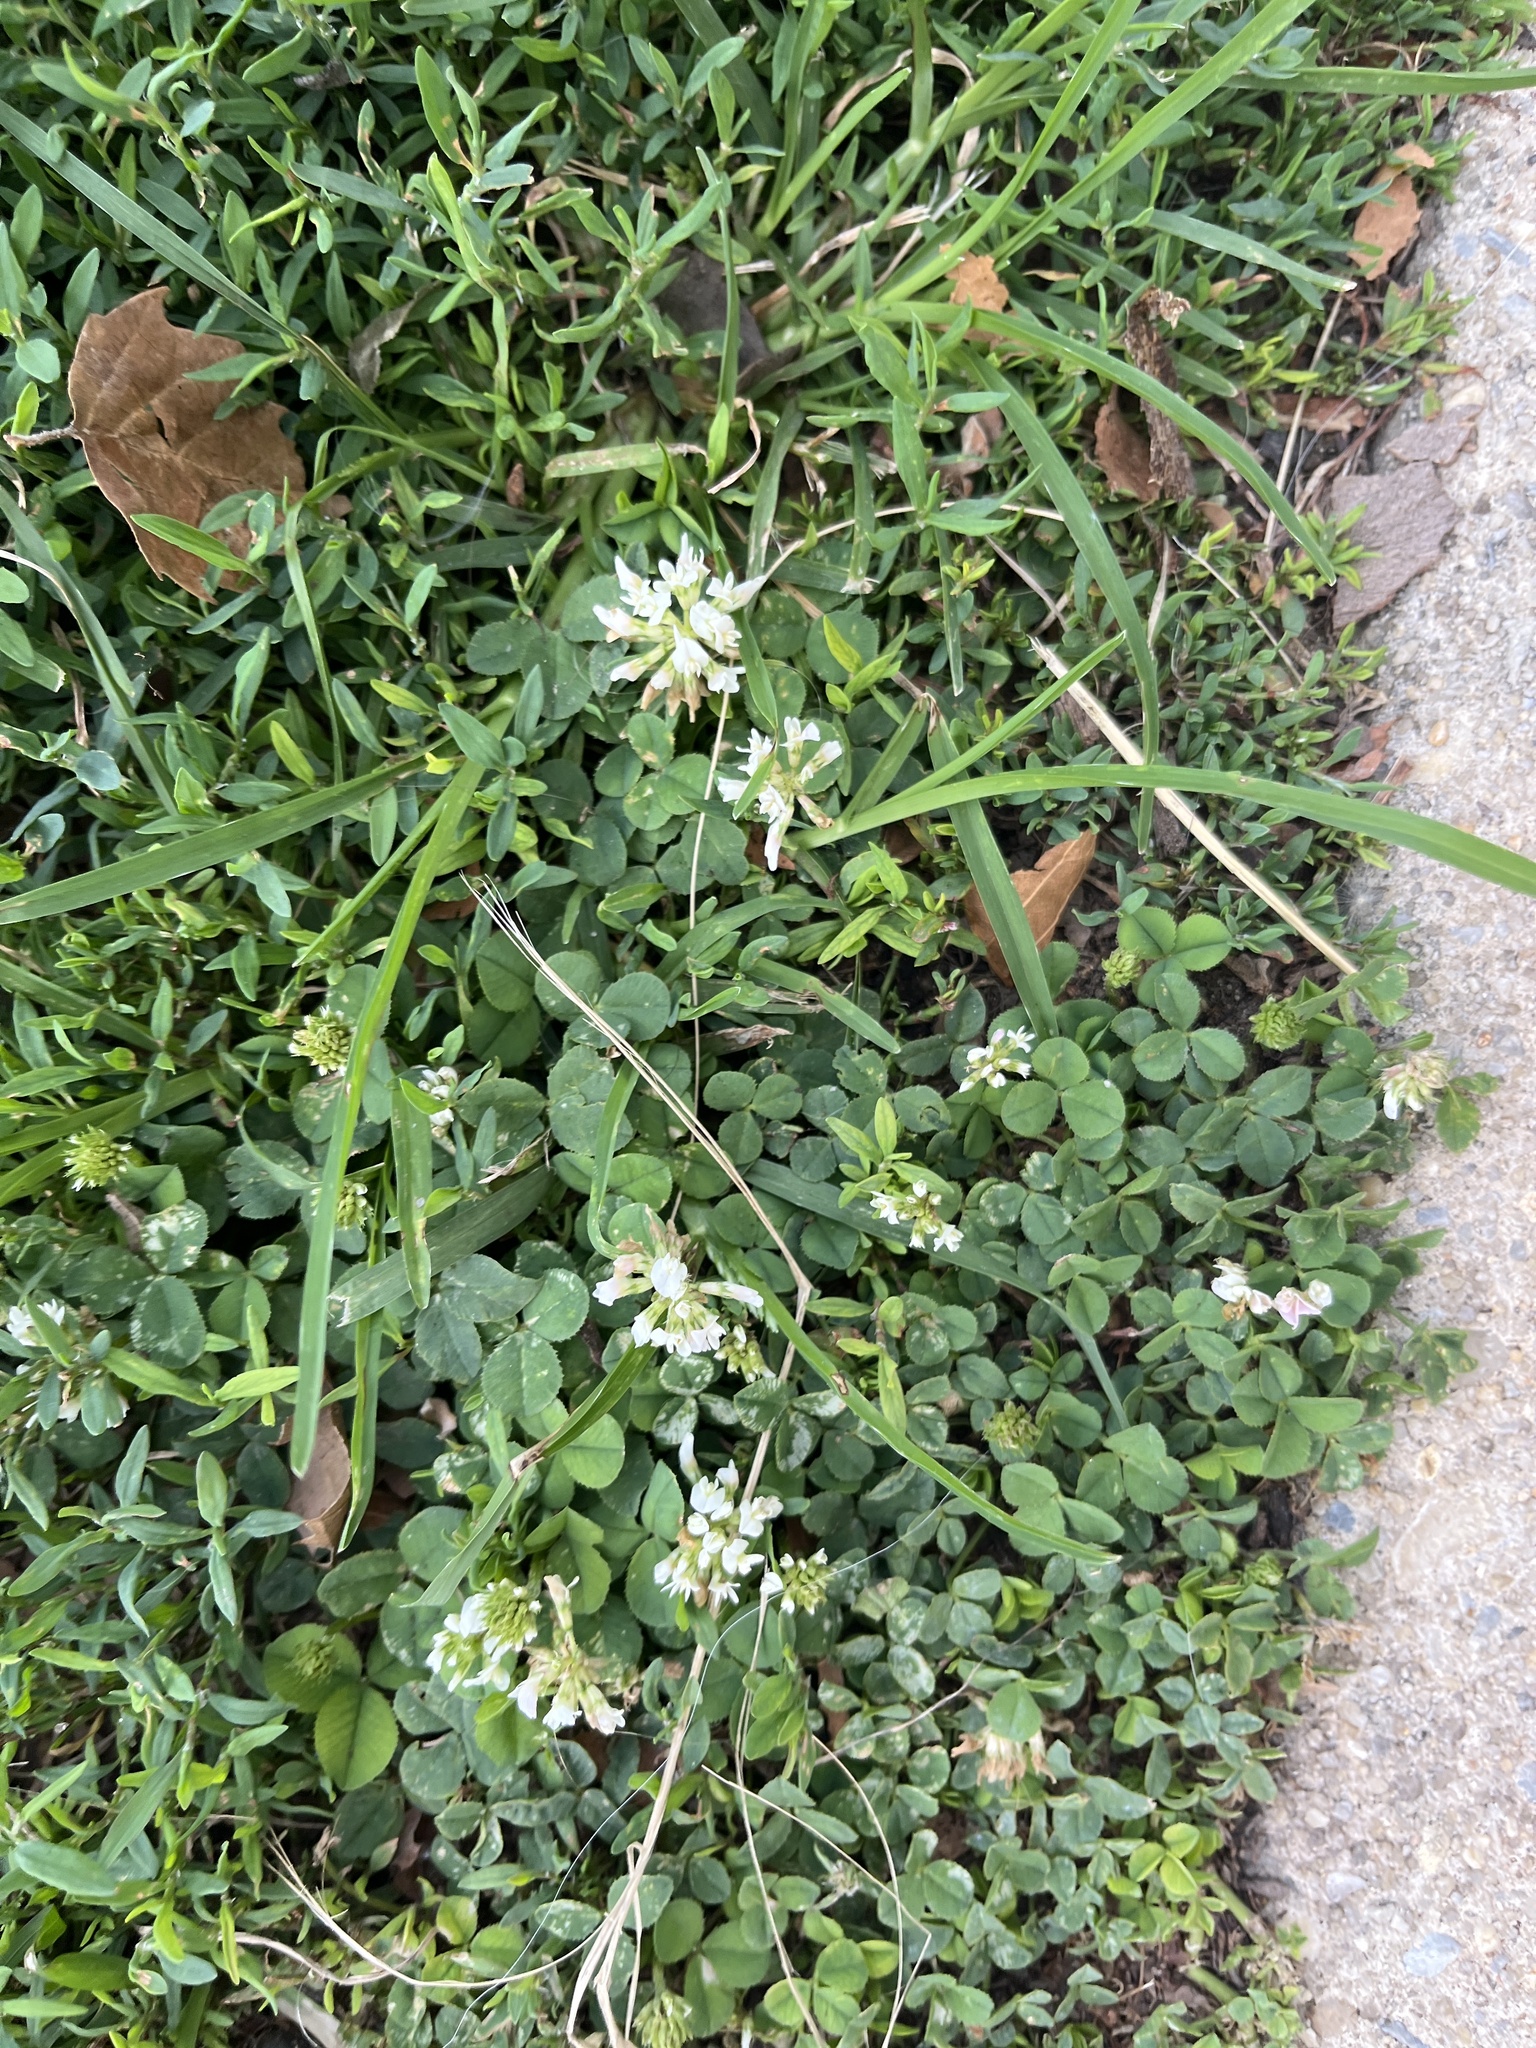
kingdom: Plantae
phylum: Tracheophyta
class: Magnoliopsida
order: Fabales
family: Fabaceae
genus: Trifolium
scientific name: Trifolium repens
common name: White clover
